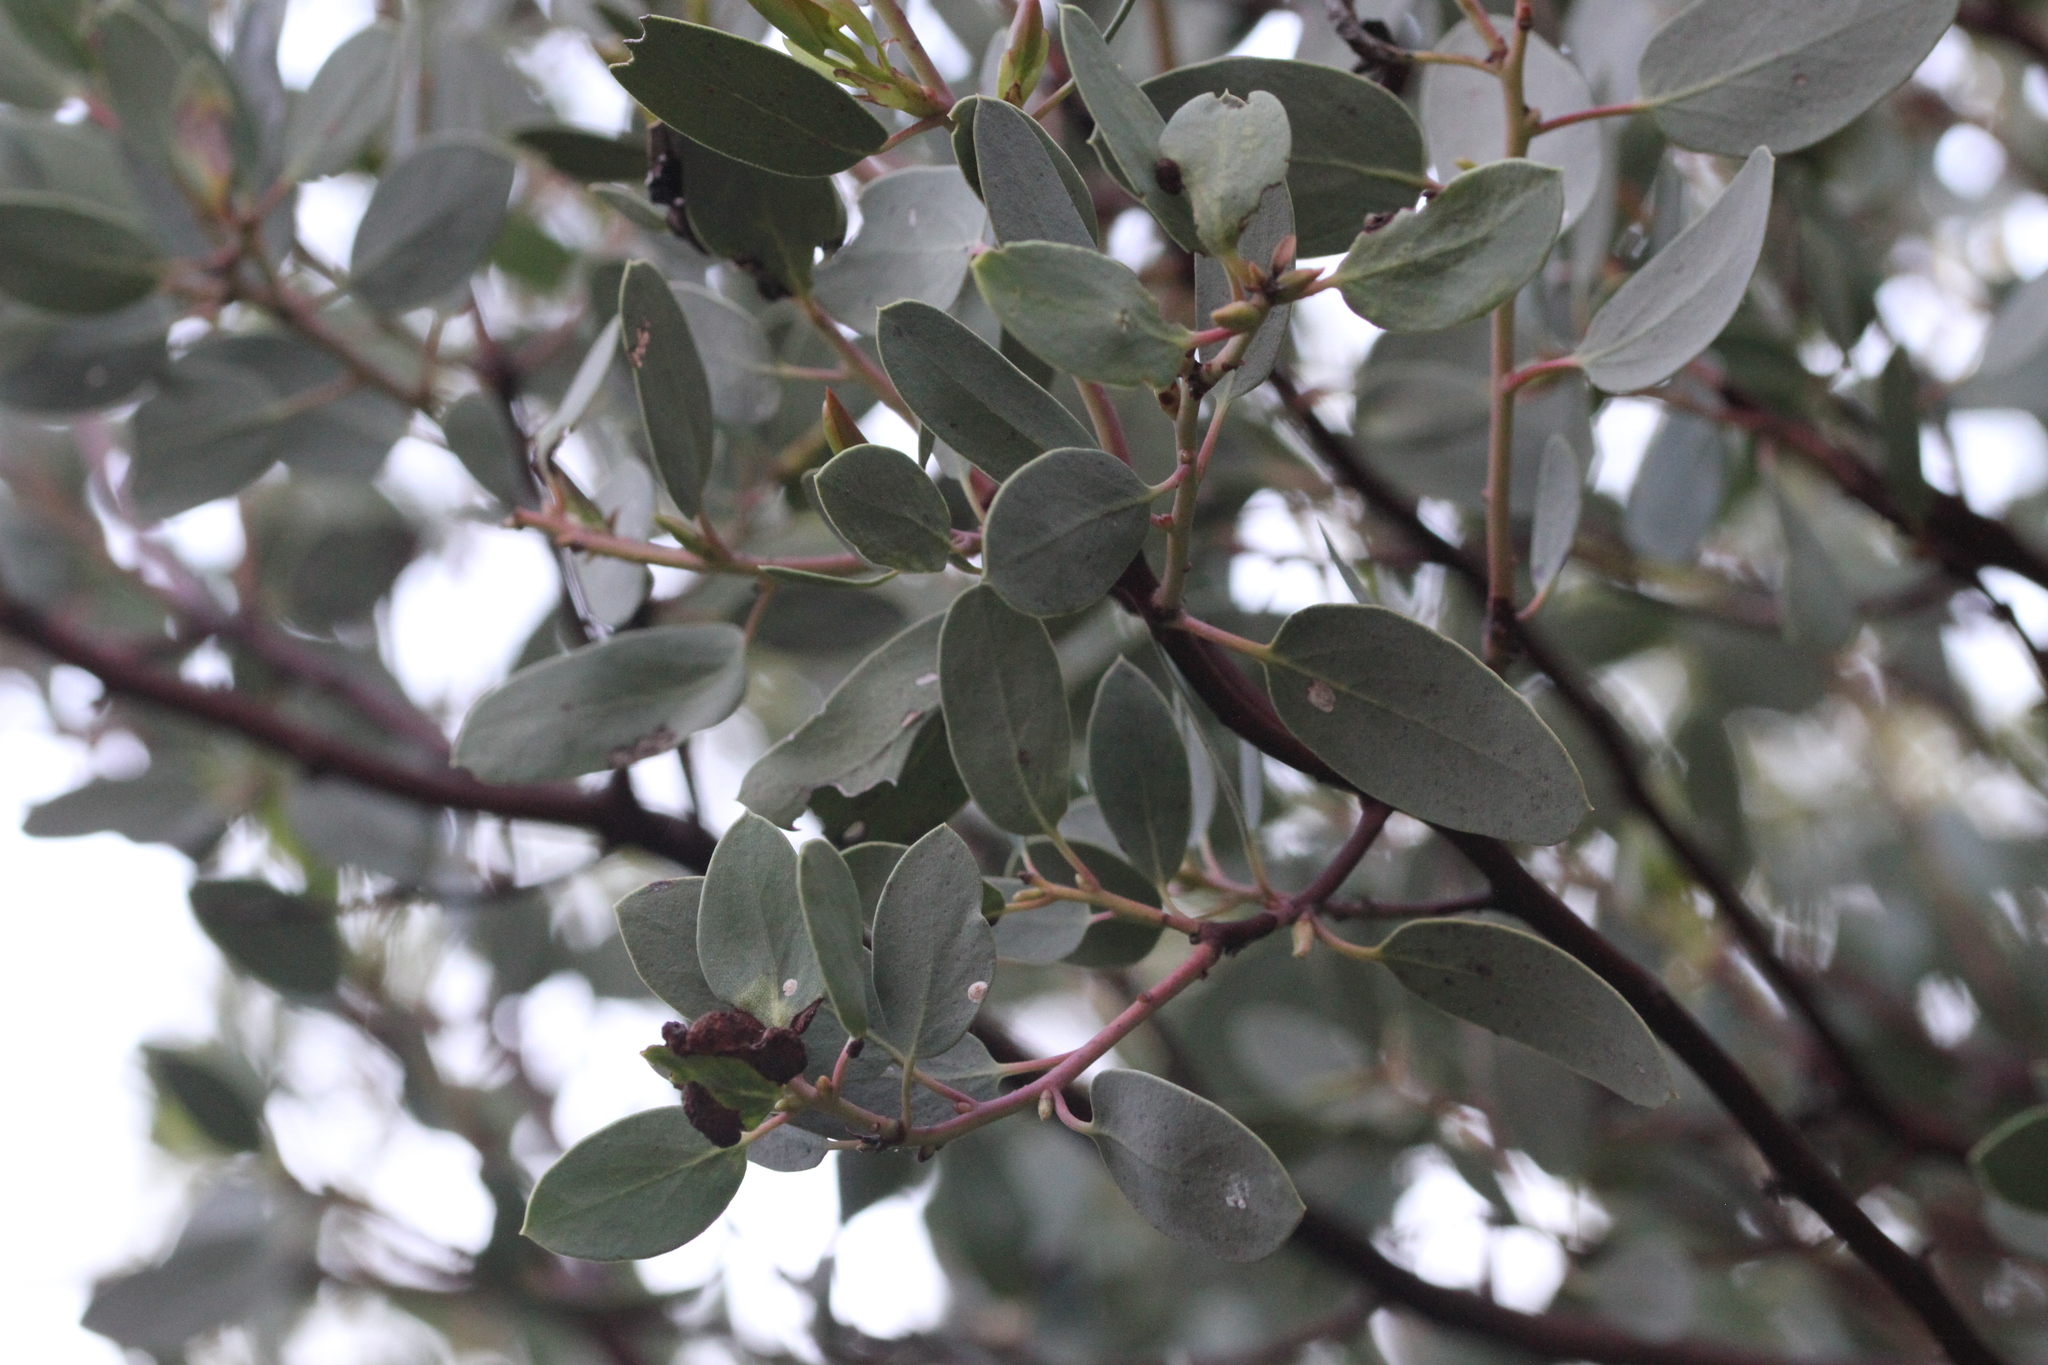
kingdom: Plantae
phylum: Tracheophyta
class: Magnoliopsida
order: Ericales
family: Ericaceae
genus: Arctostaphylos
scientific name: Arctostaphylos glauca
